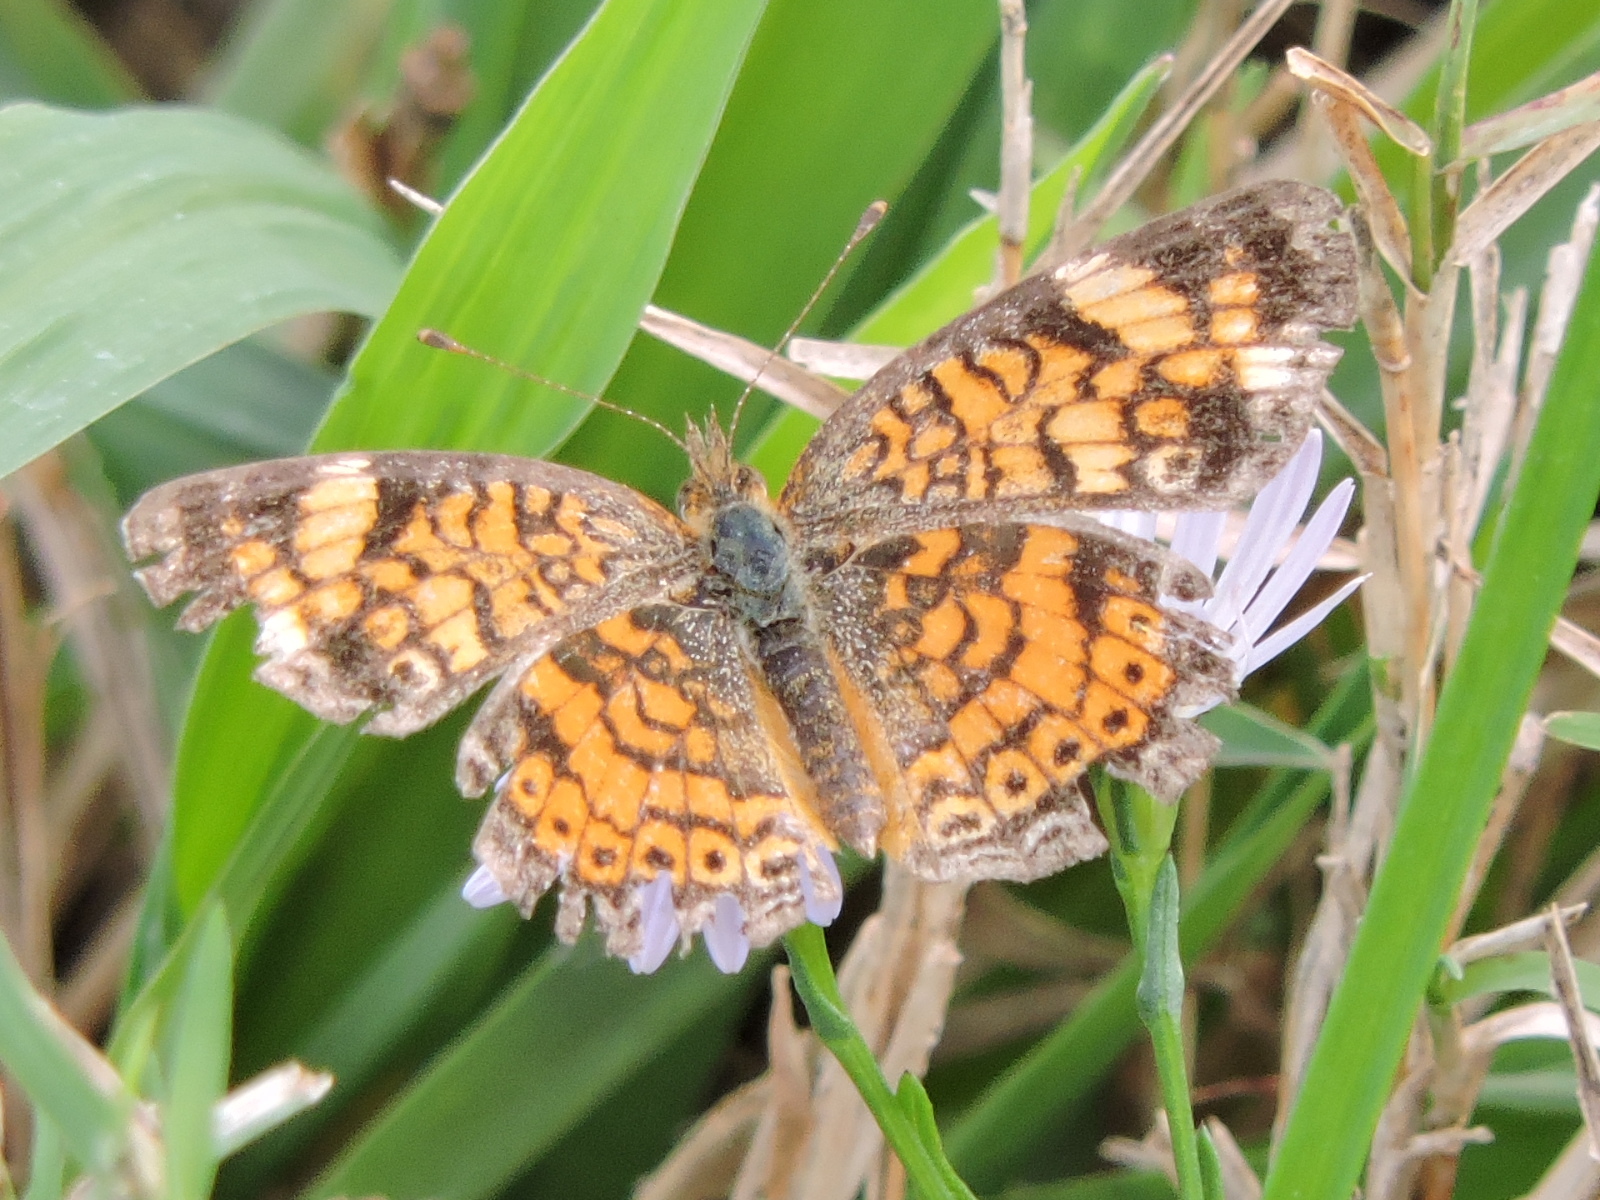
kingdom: Animalia
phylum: Arthropoda
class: Insecta
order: Lepidoptera
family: Nymphalidae
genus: Phyciodes
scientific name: Phyciodes tharos
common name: Pearl crescent
